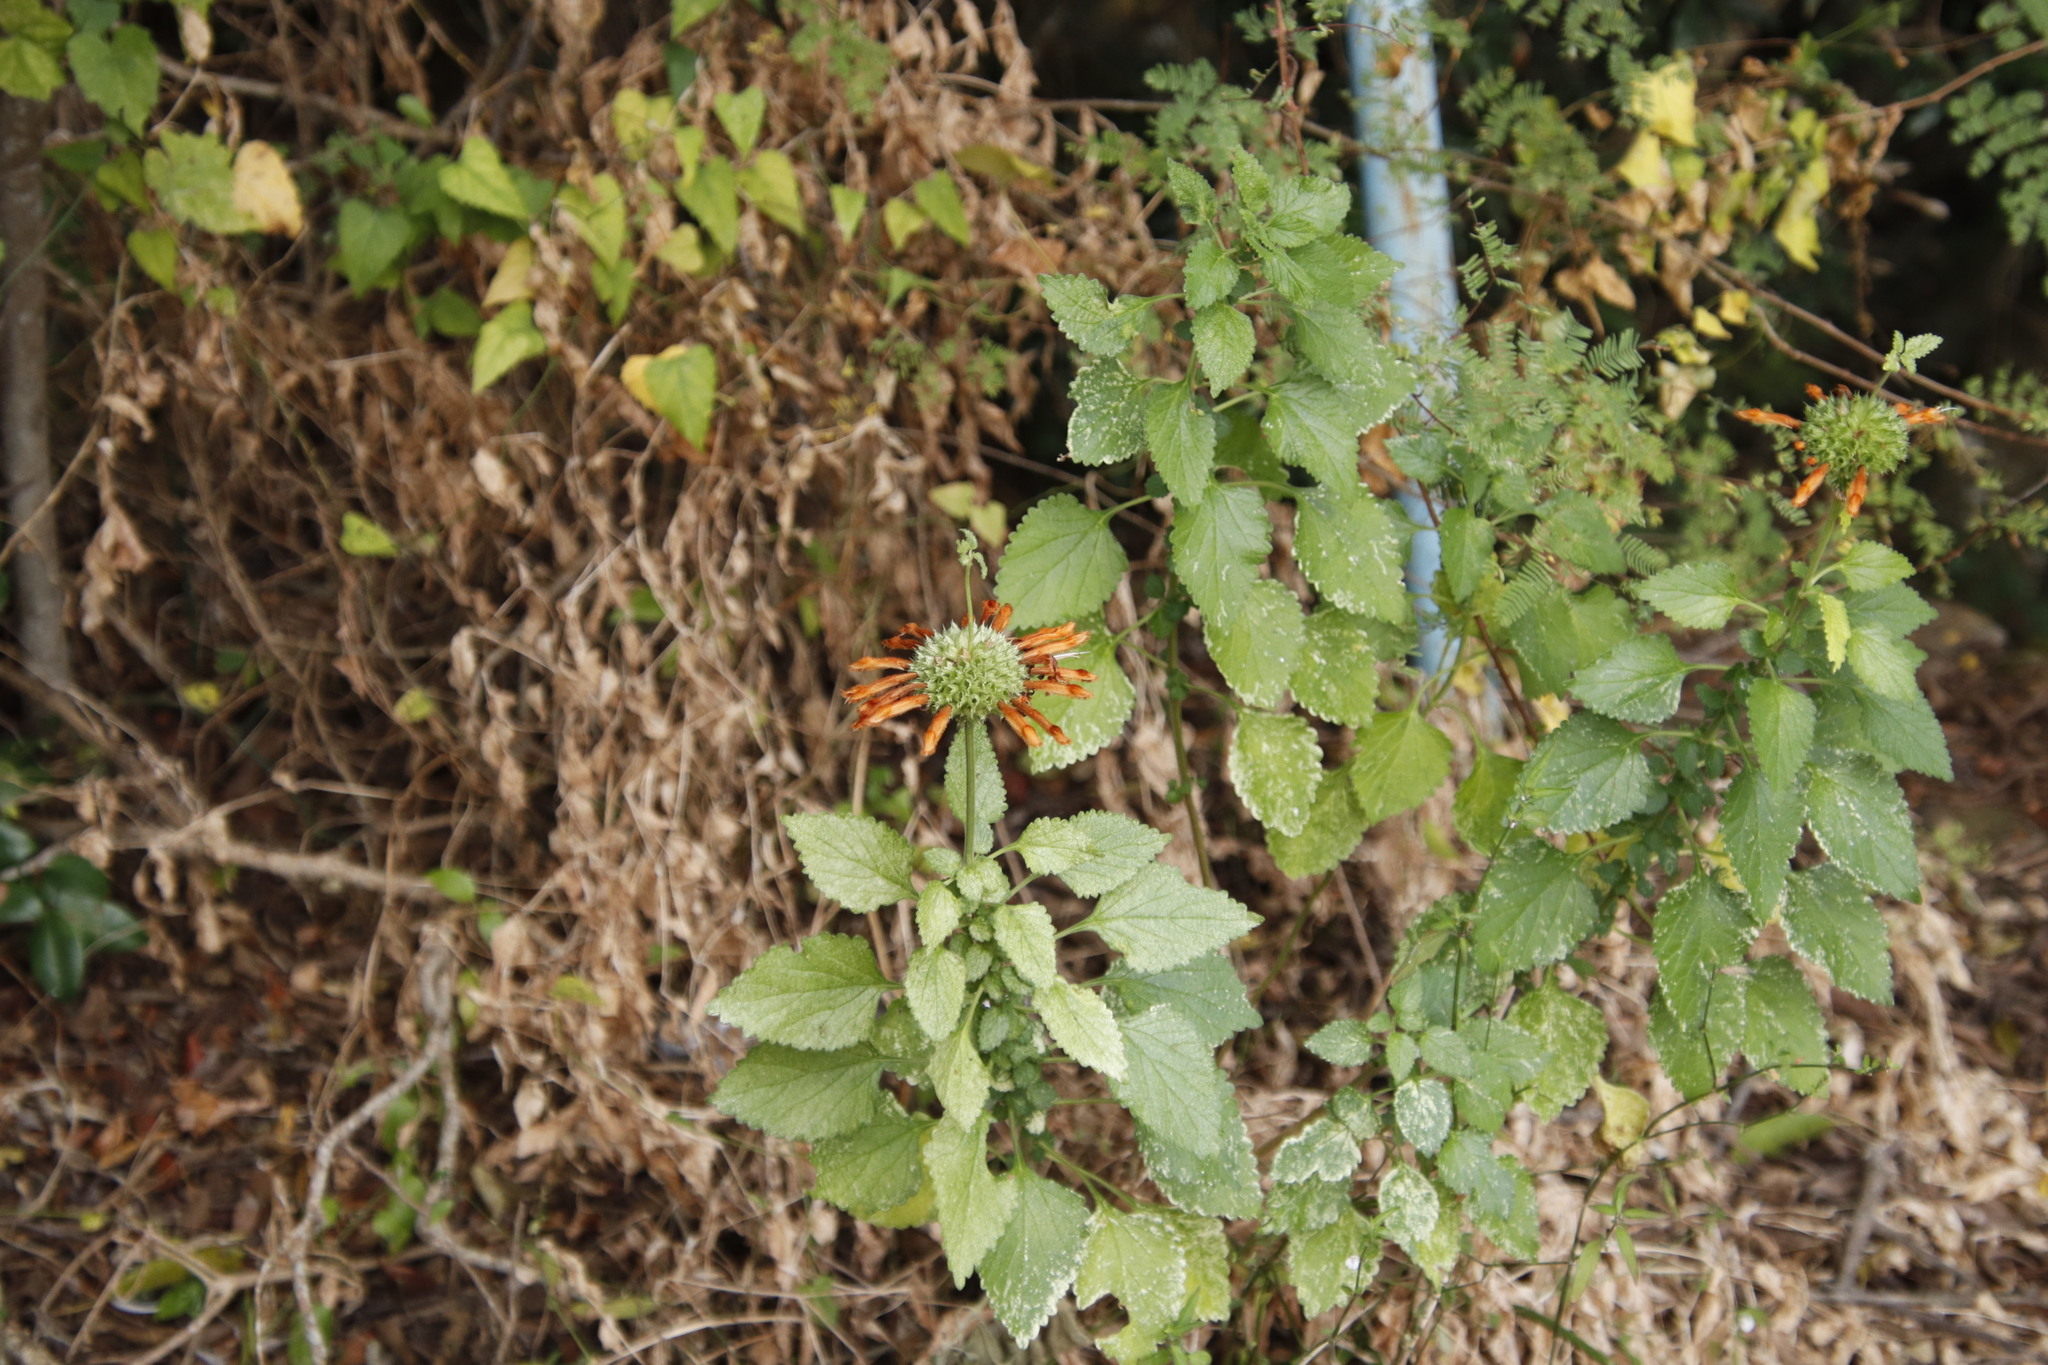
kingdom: Plantae
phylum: Tracheophyta
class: Magnoliopsida
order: Lamiales
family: Lamiaceae
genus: Leonotis
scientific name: Leonotis ocymifolia
